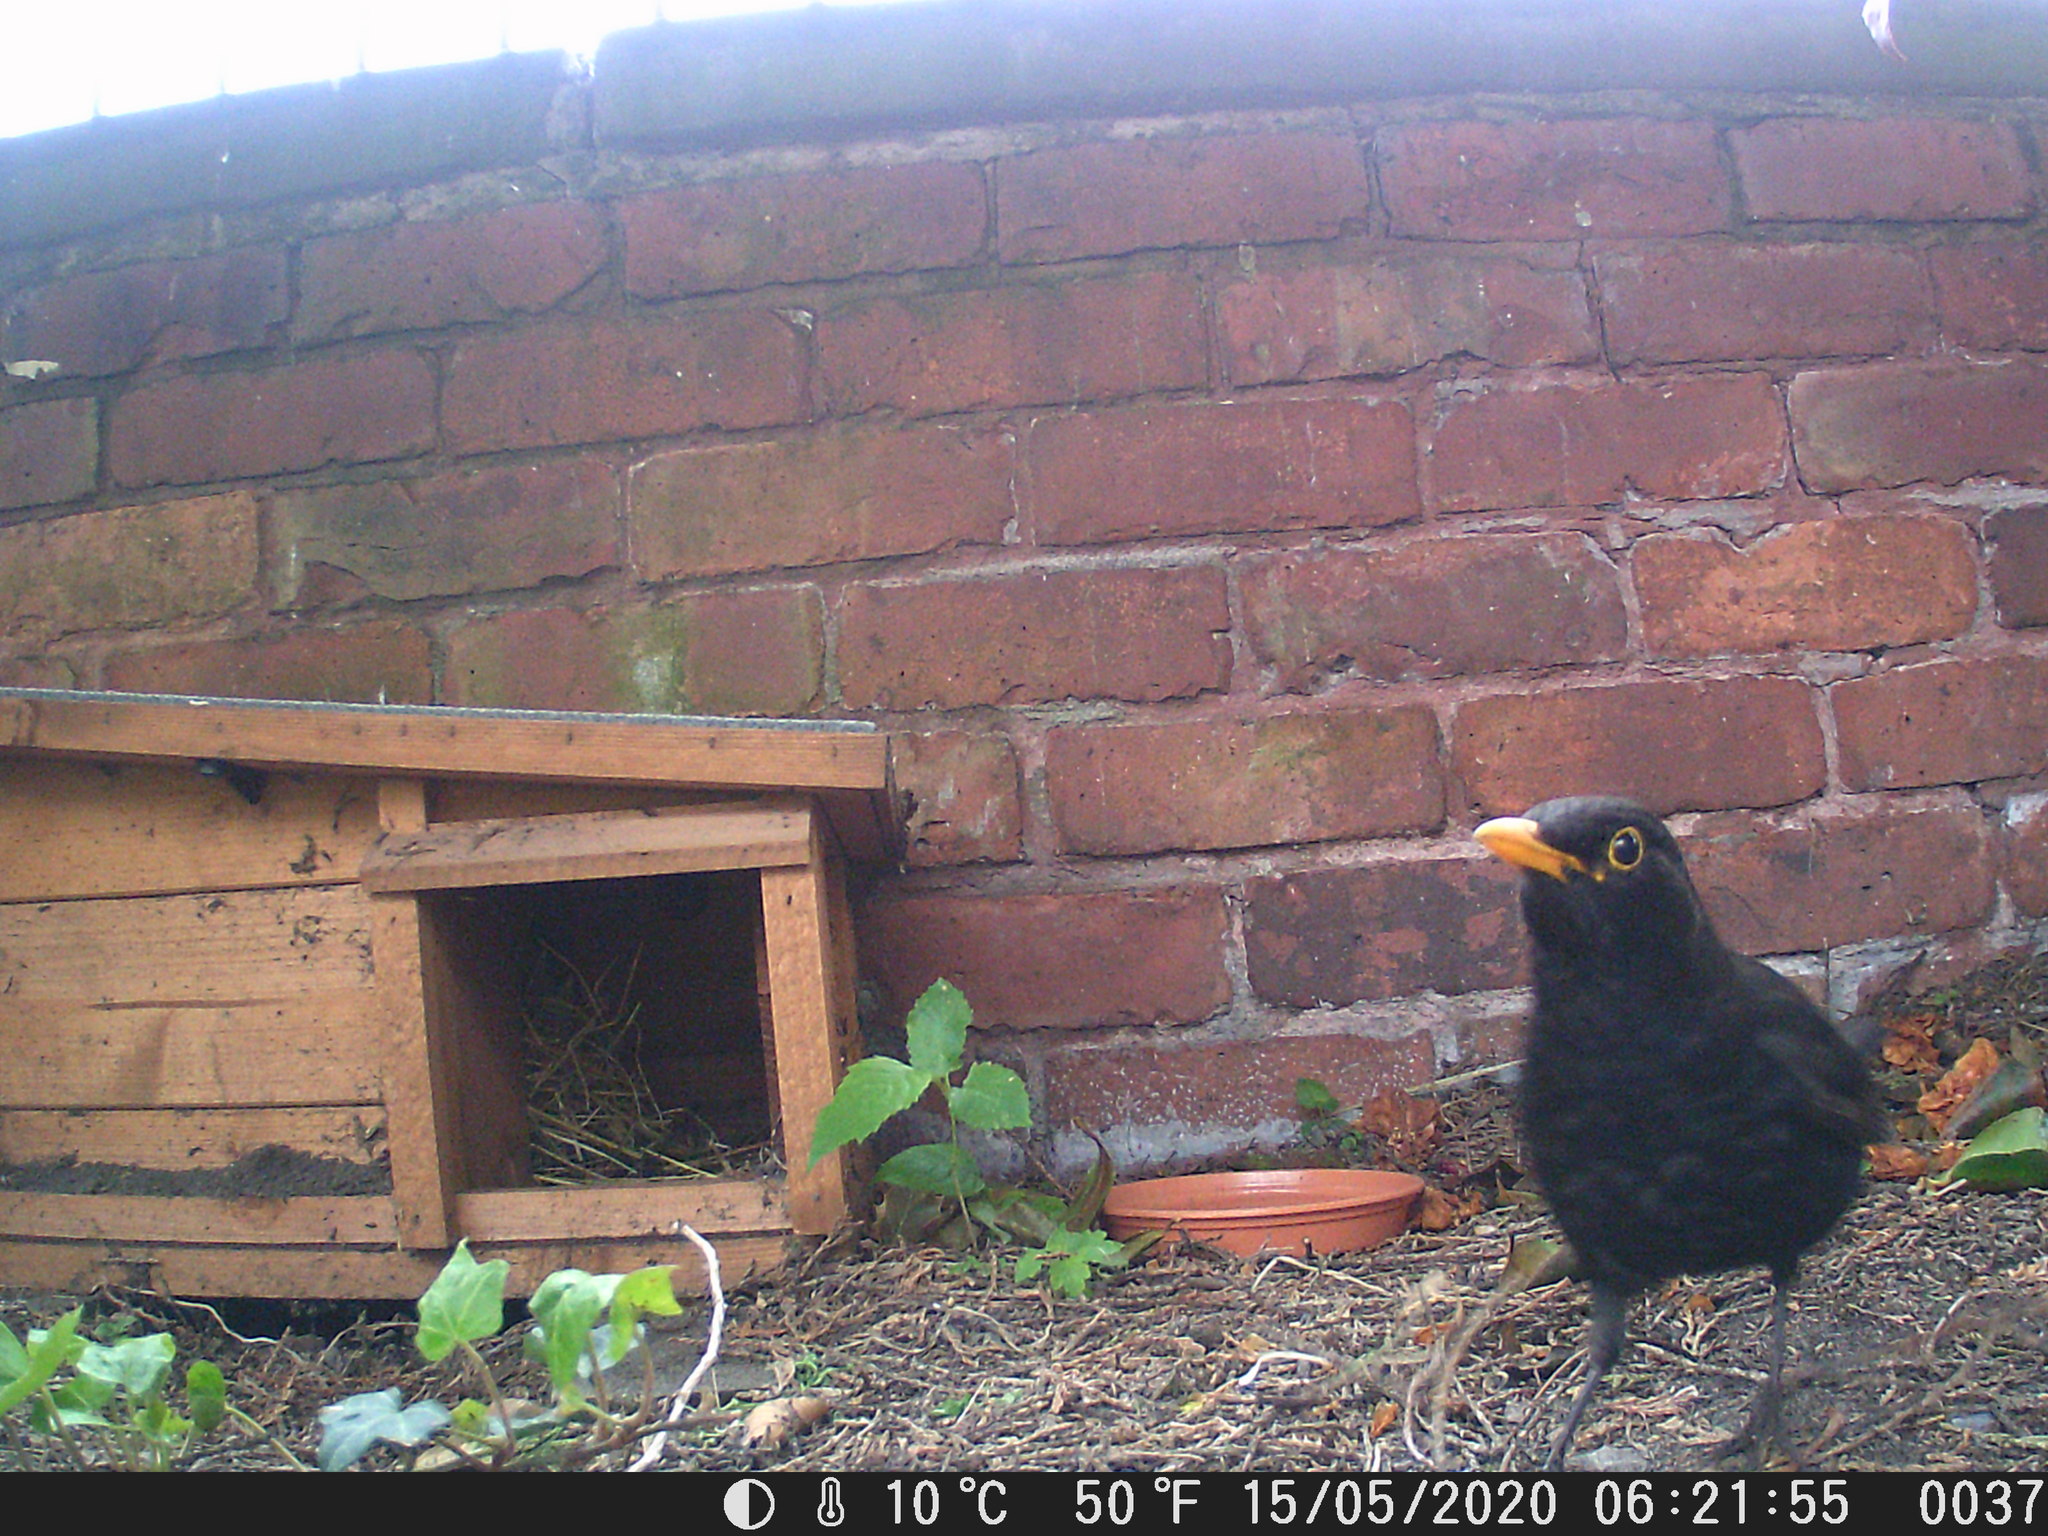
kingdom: Animalia
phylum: Chordata
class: Aves
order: Passeriformes
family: Turdidae
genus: Turdus
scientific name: Turdus merula
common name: Common blackbird
